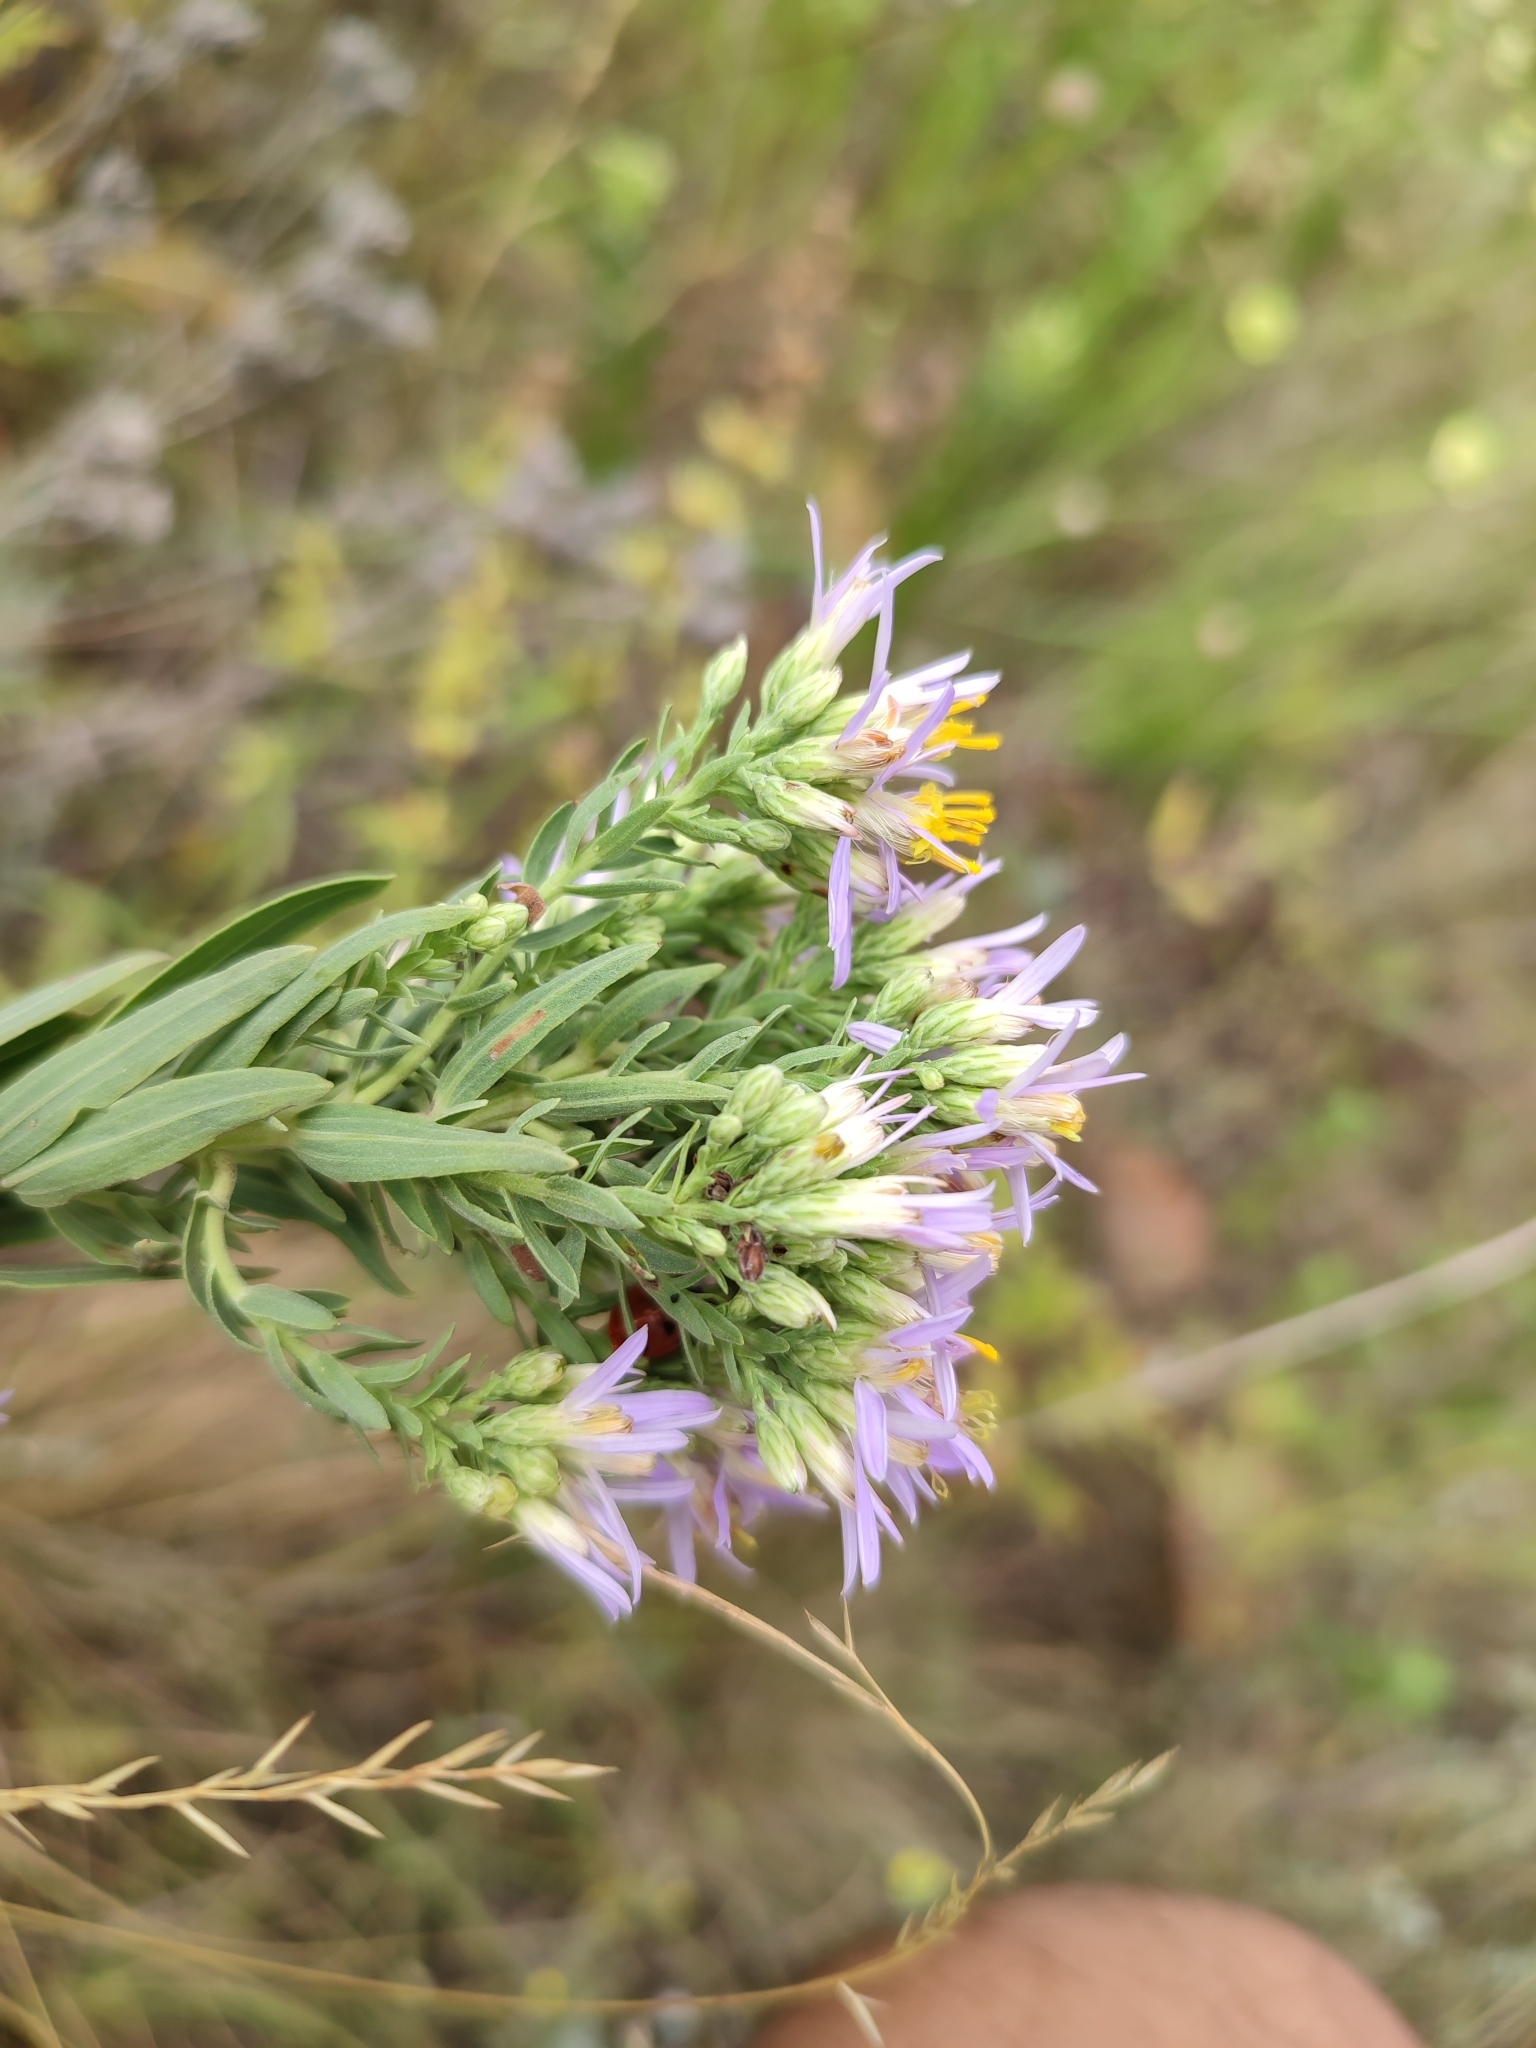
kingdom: Plantae
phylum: Tracheophyta
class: Magnoliopsida
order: Asterales
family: Asteraceae
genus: Galatella
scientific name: Galatella sedifolia
